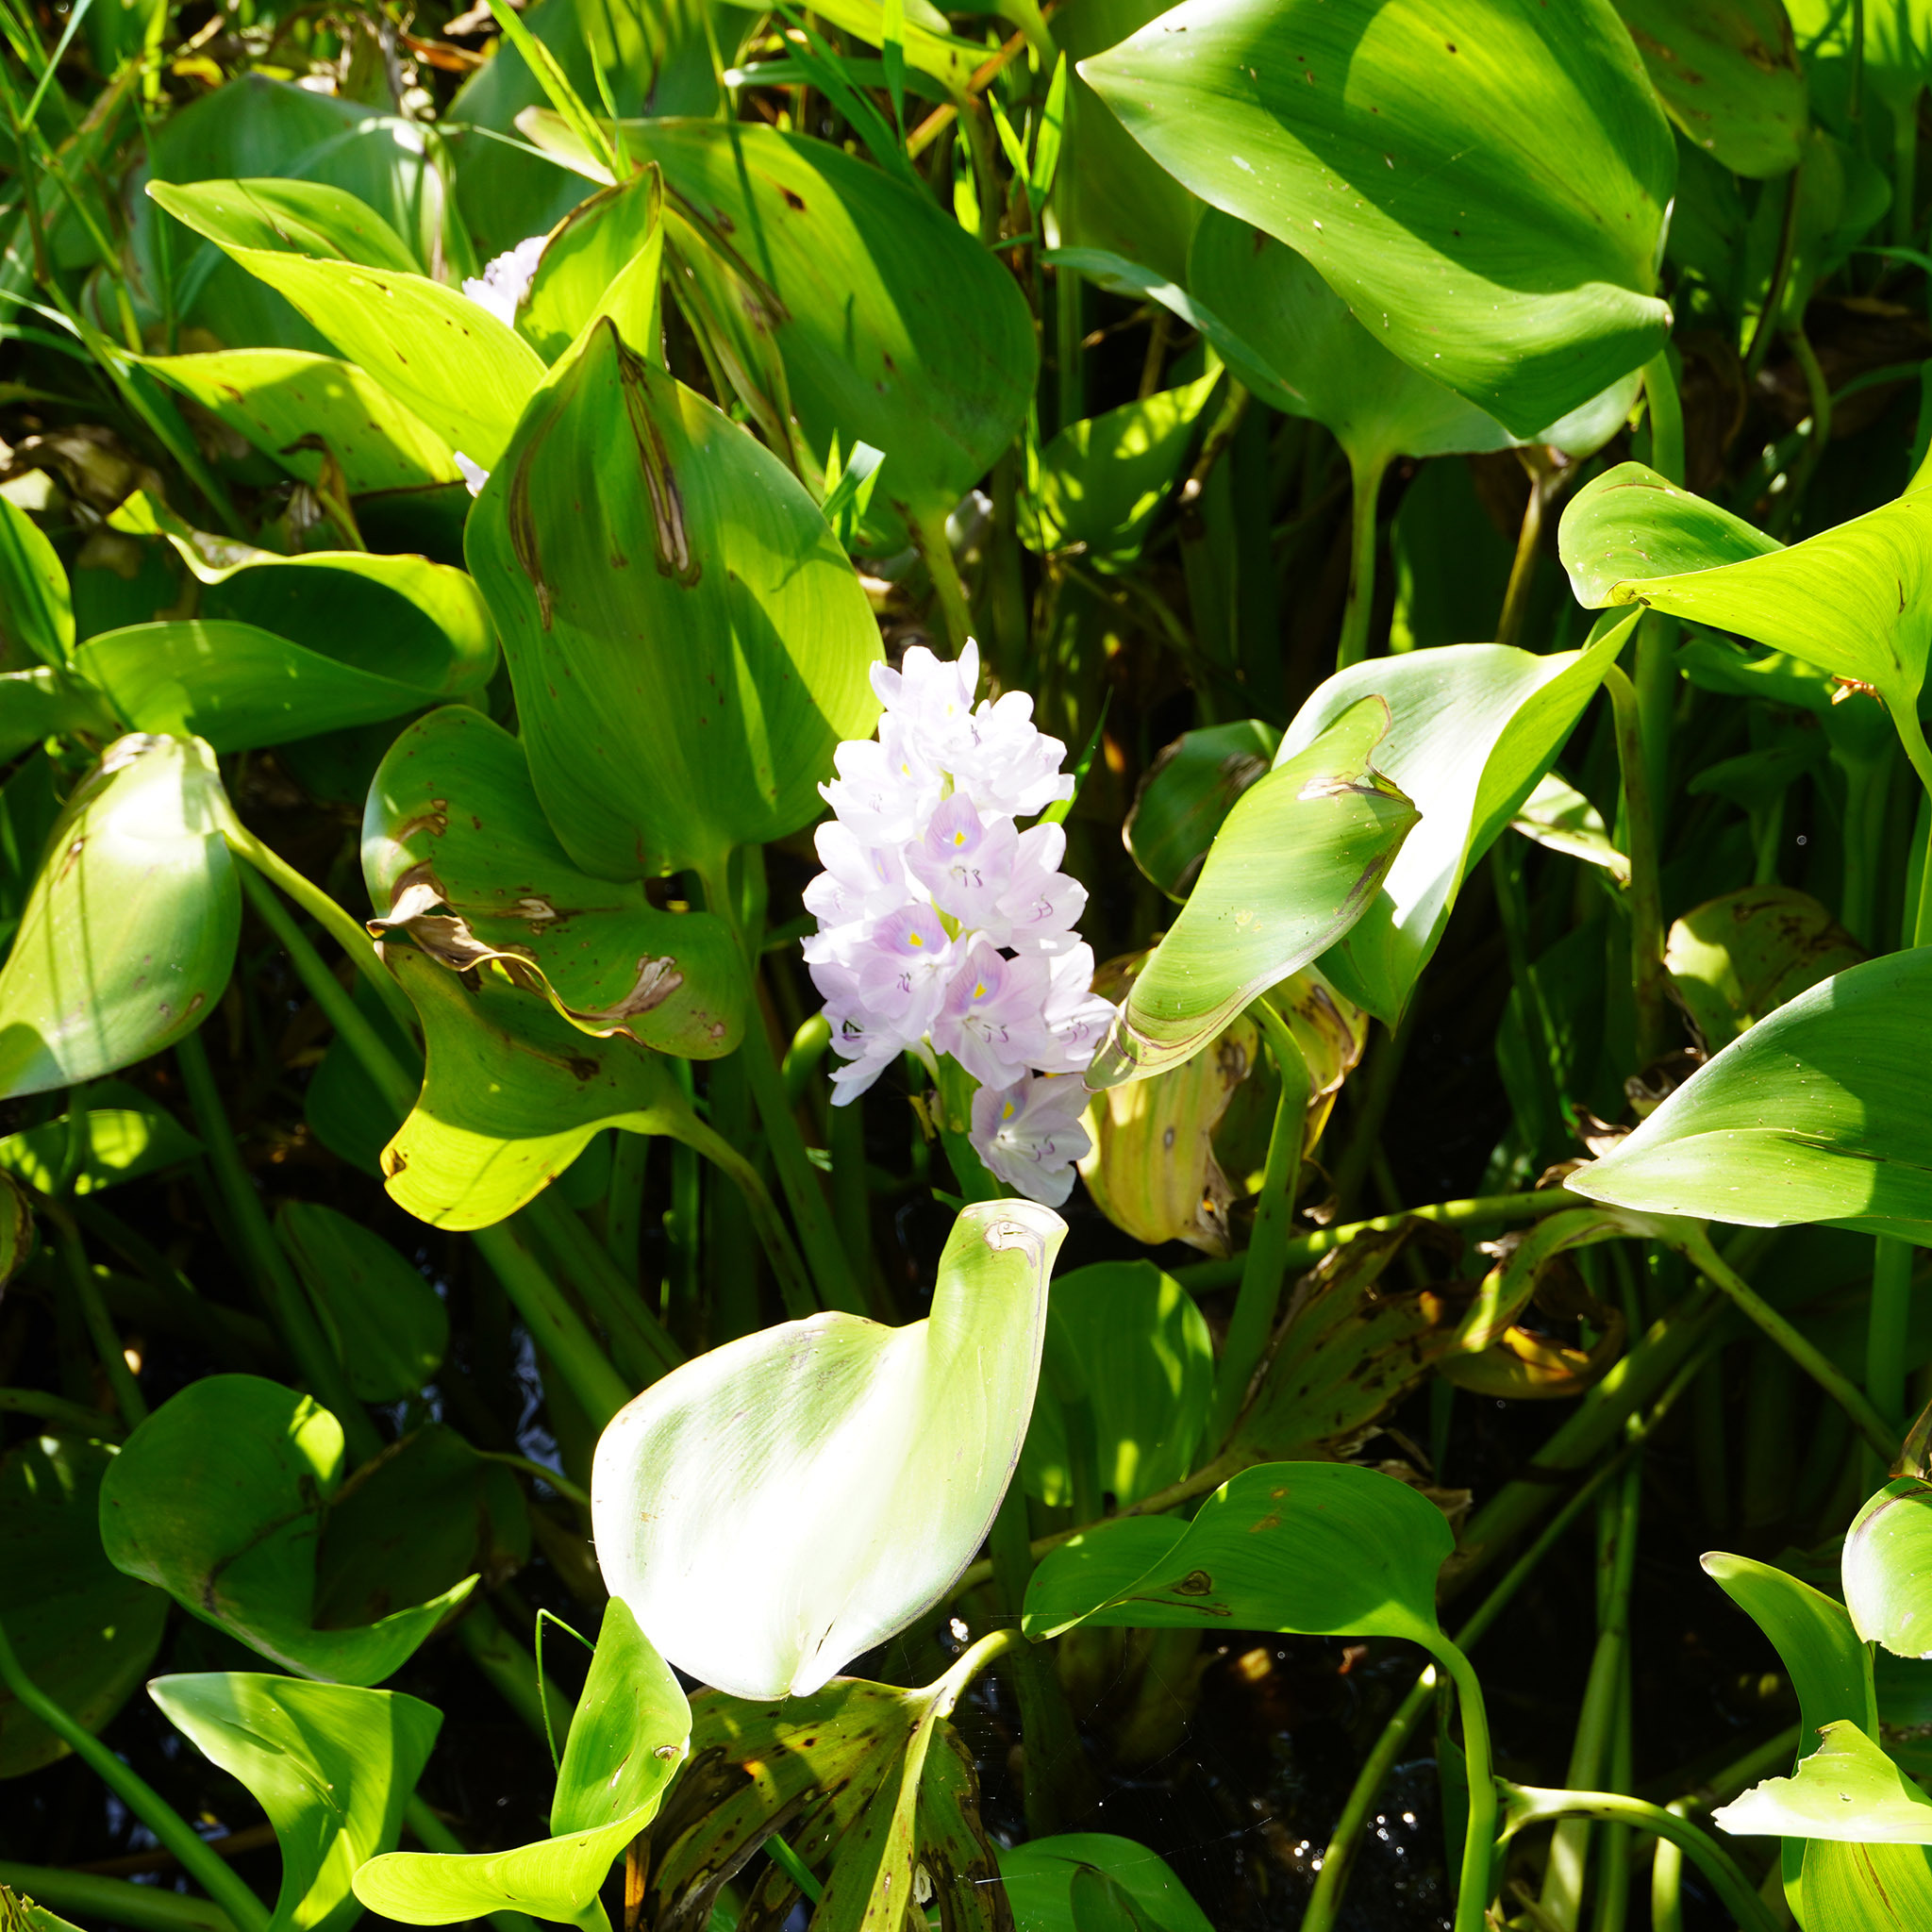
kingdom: Plantae
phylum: Tracheophyta
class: Liliopsida
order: Commelinales
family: Pontederiaceae
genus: Pontederia
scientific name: Pontederia crassipes
